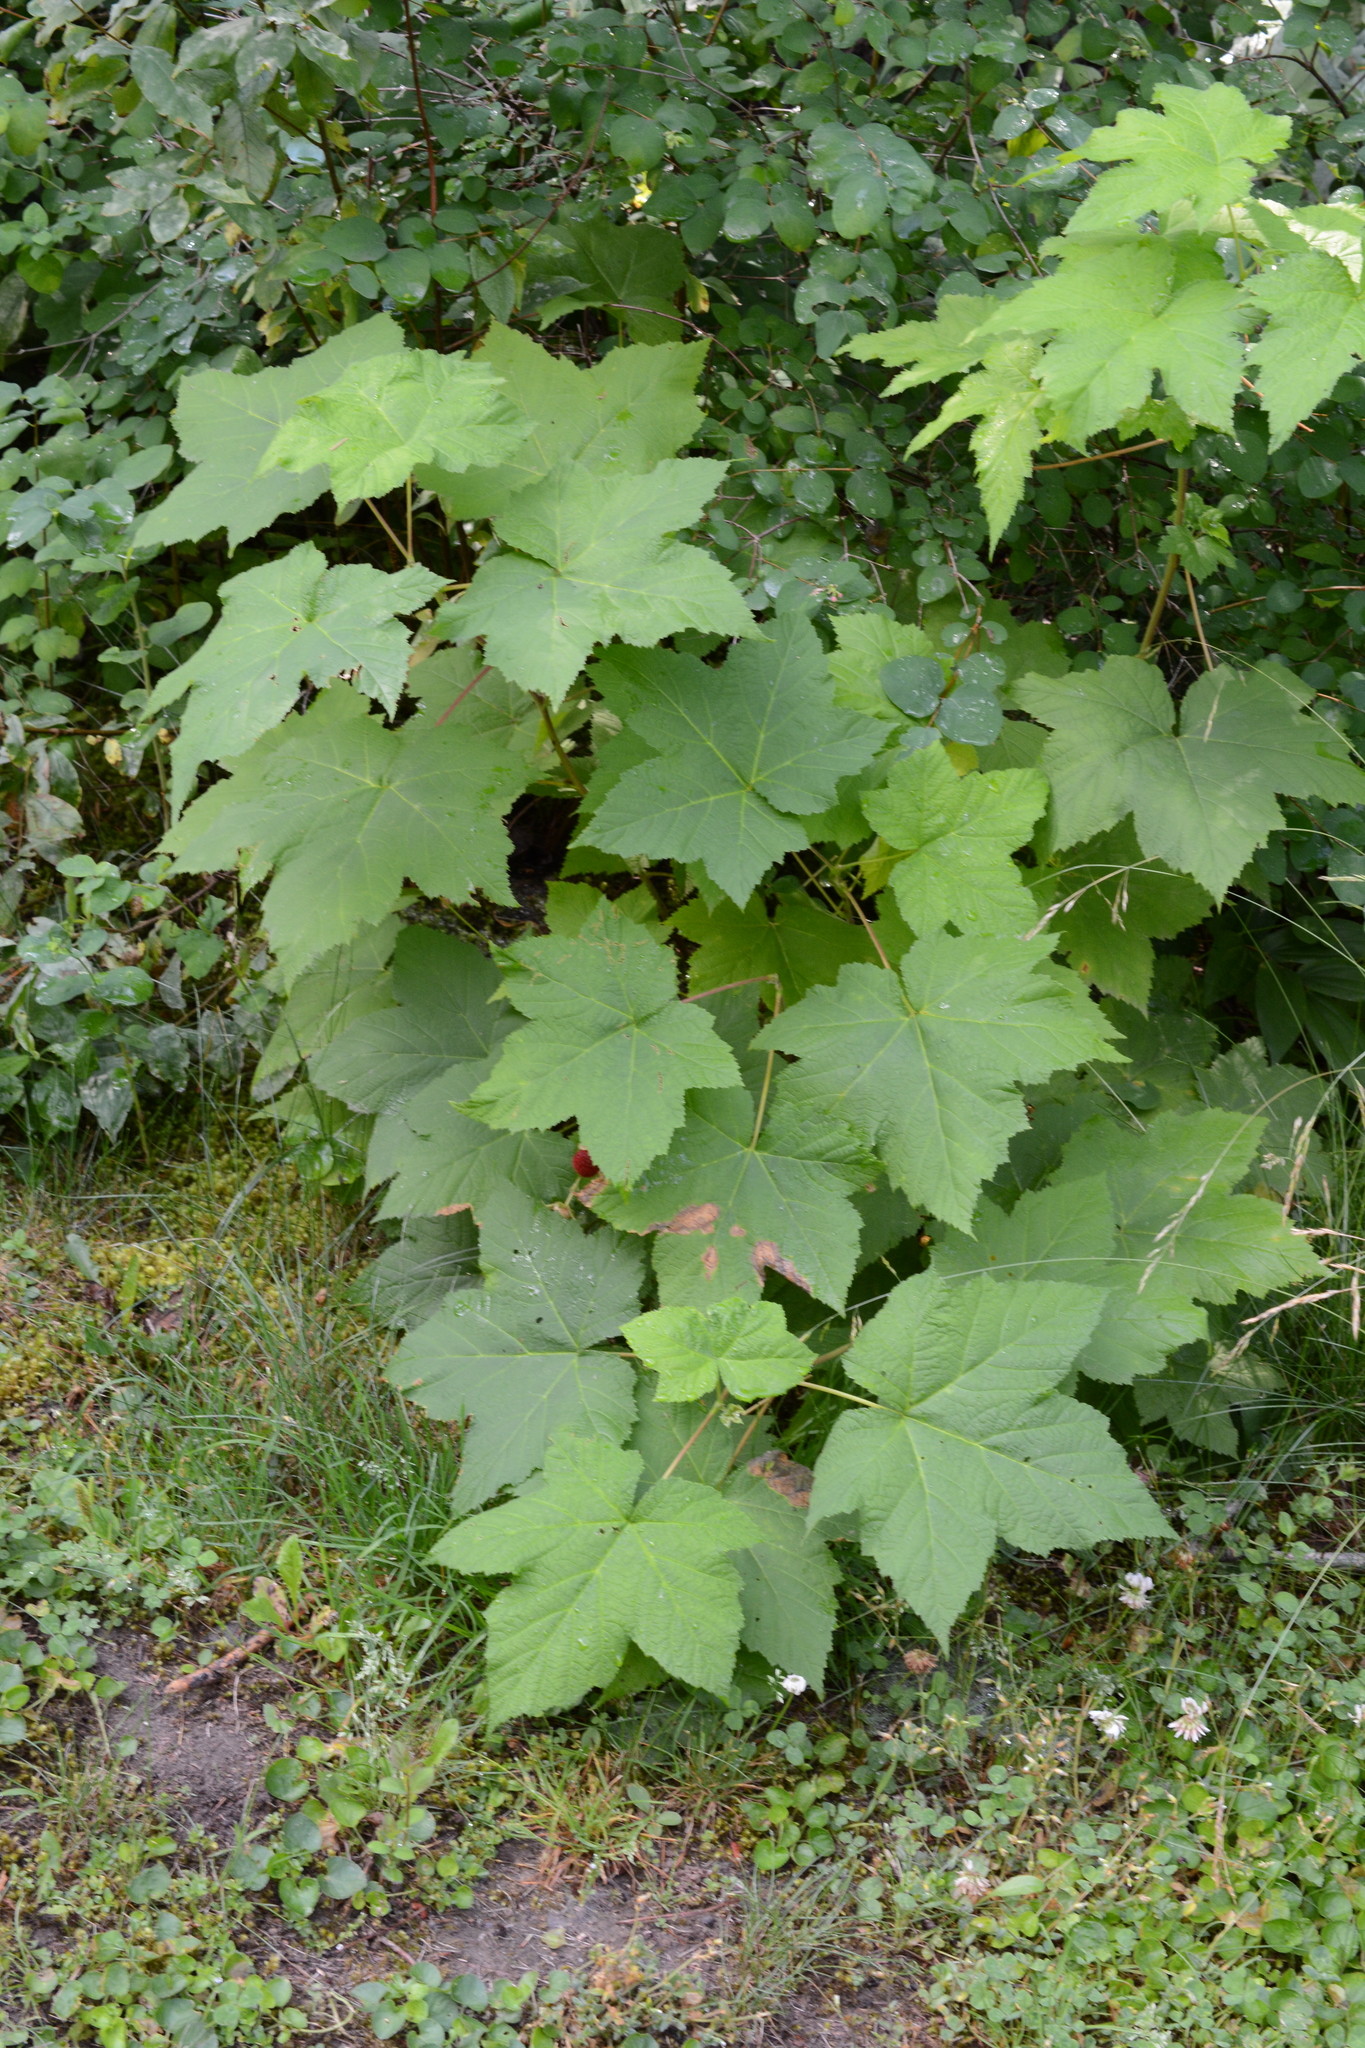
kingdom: Plantae
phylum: Tracheophyta
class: Magnoliopsida
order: Rosales
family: Rosaceae
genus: Rubus
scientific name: Rubus parviflorus
